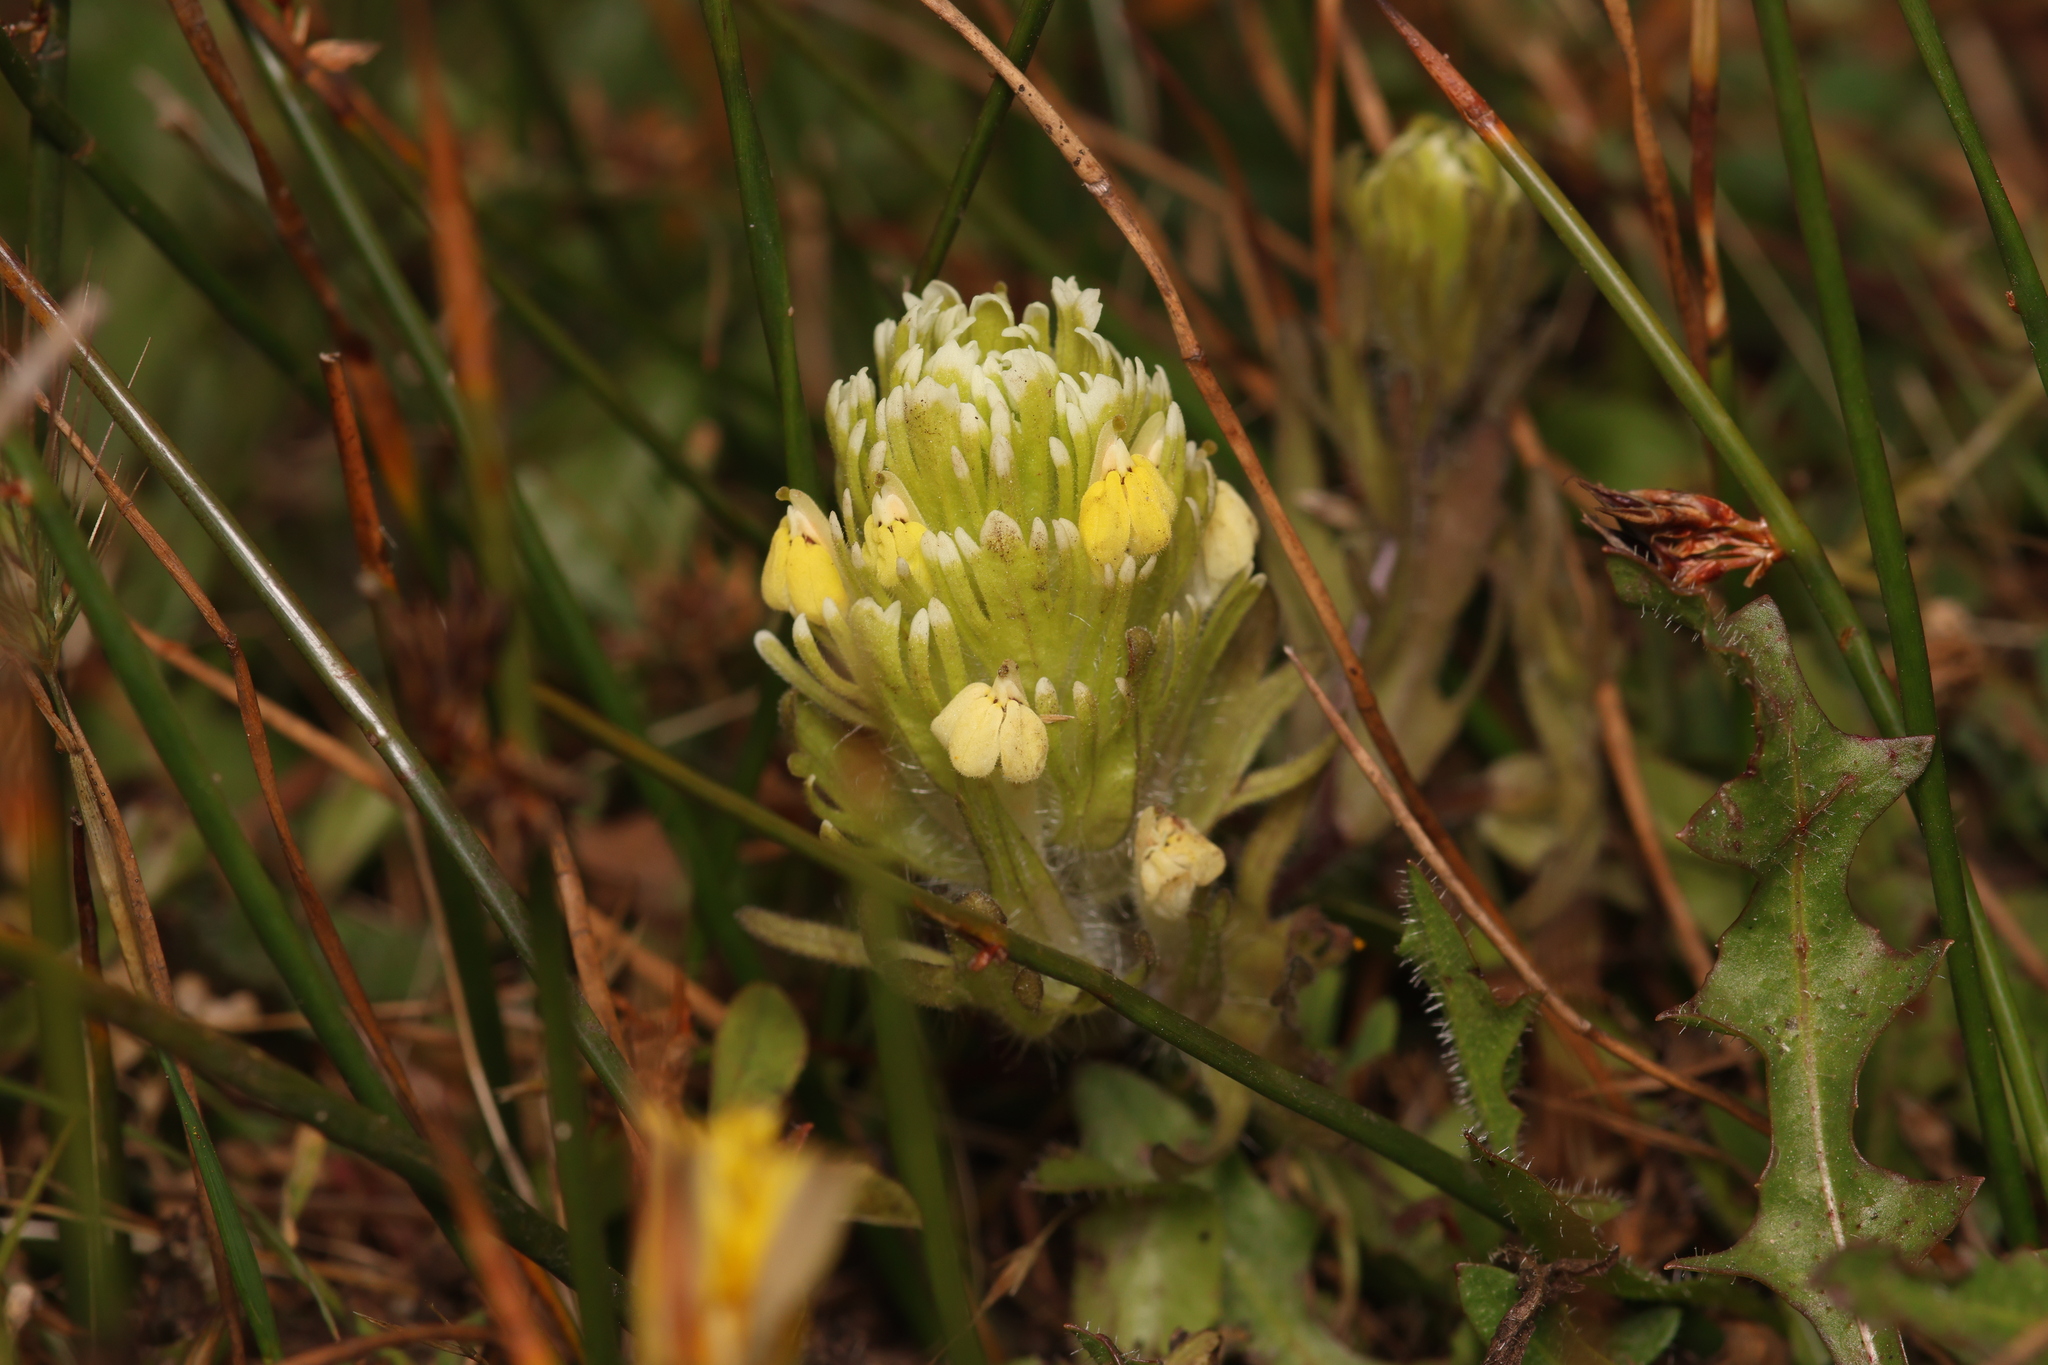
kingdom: Plantae
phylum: Tracheophyta
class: Magnoliopsida
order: Lamiales
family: Orobanchaceae
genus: Castilleja
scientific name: Castilleja ambigua
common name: Johnny-nip
